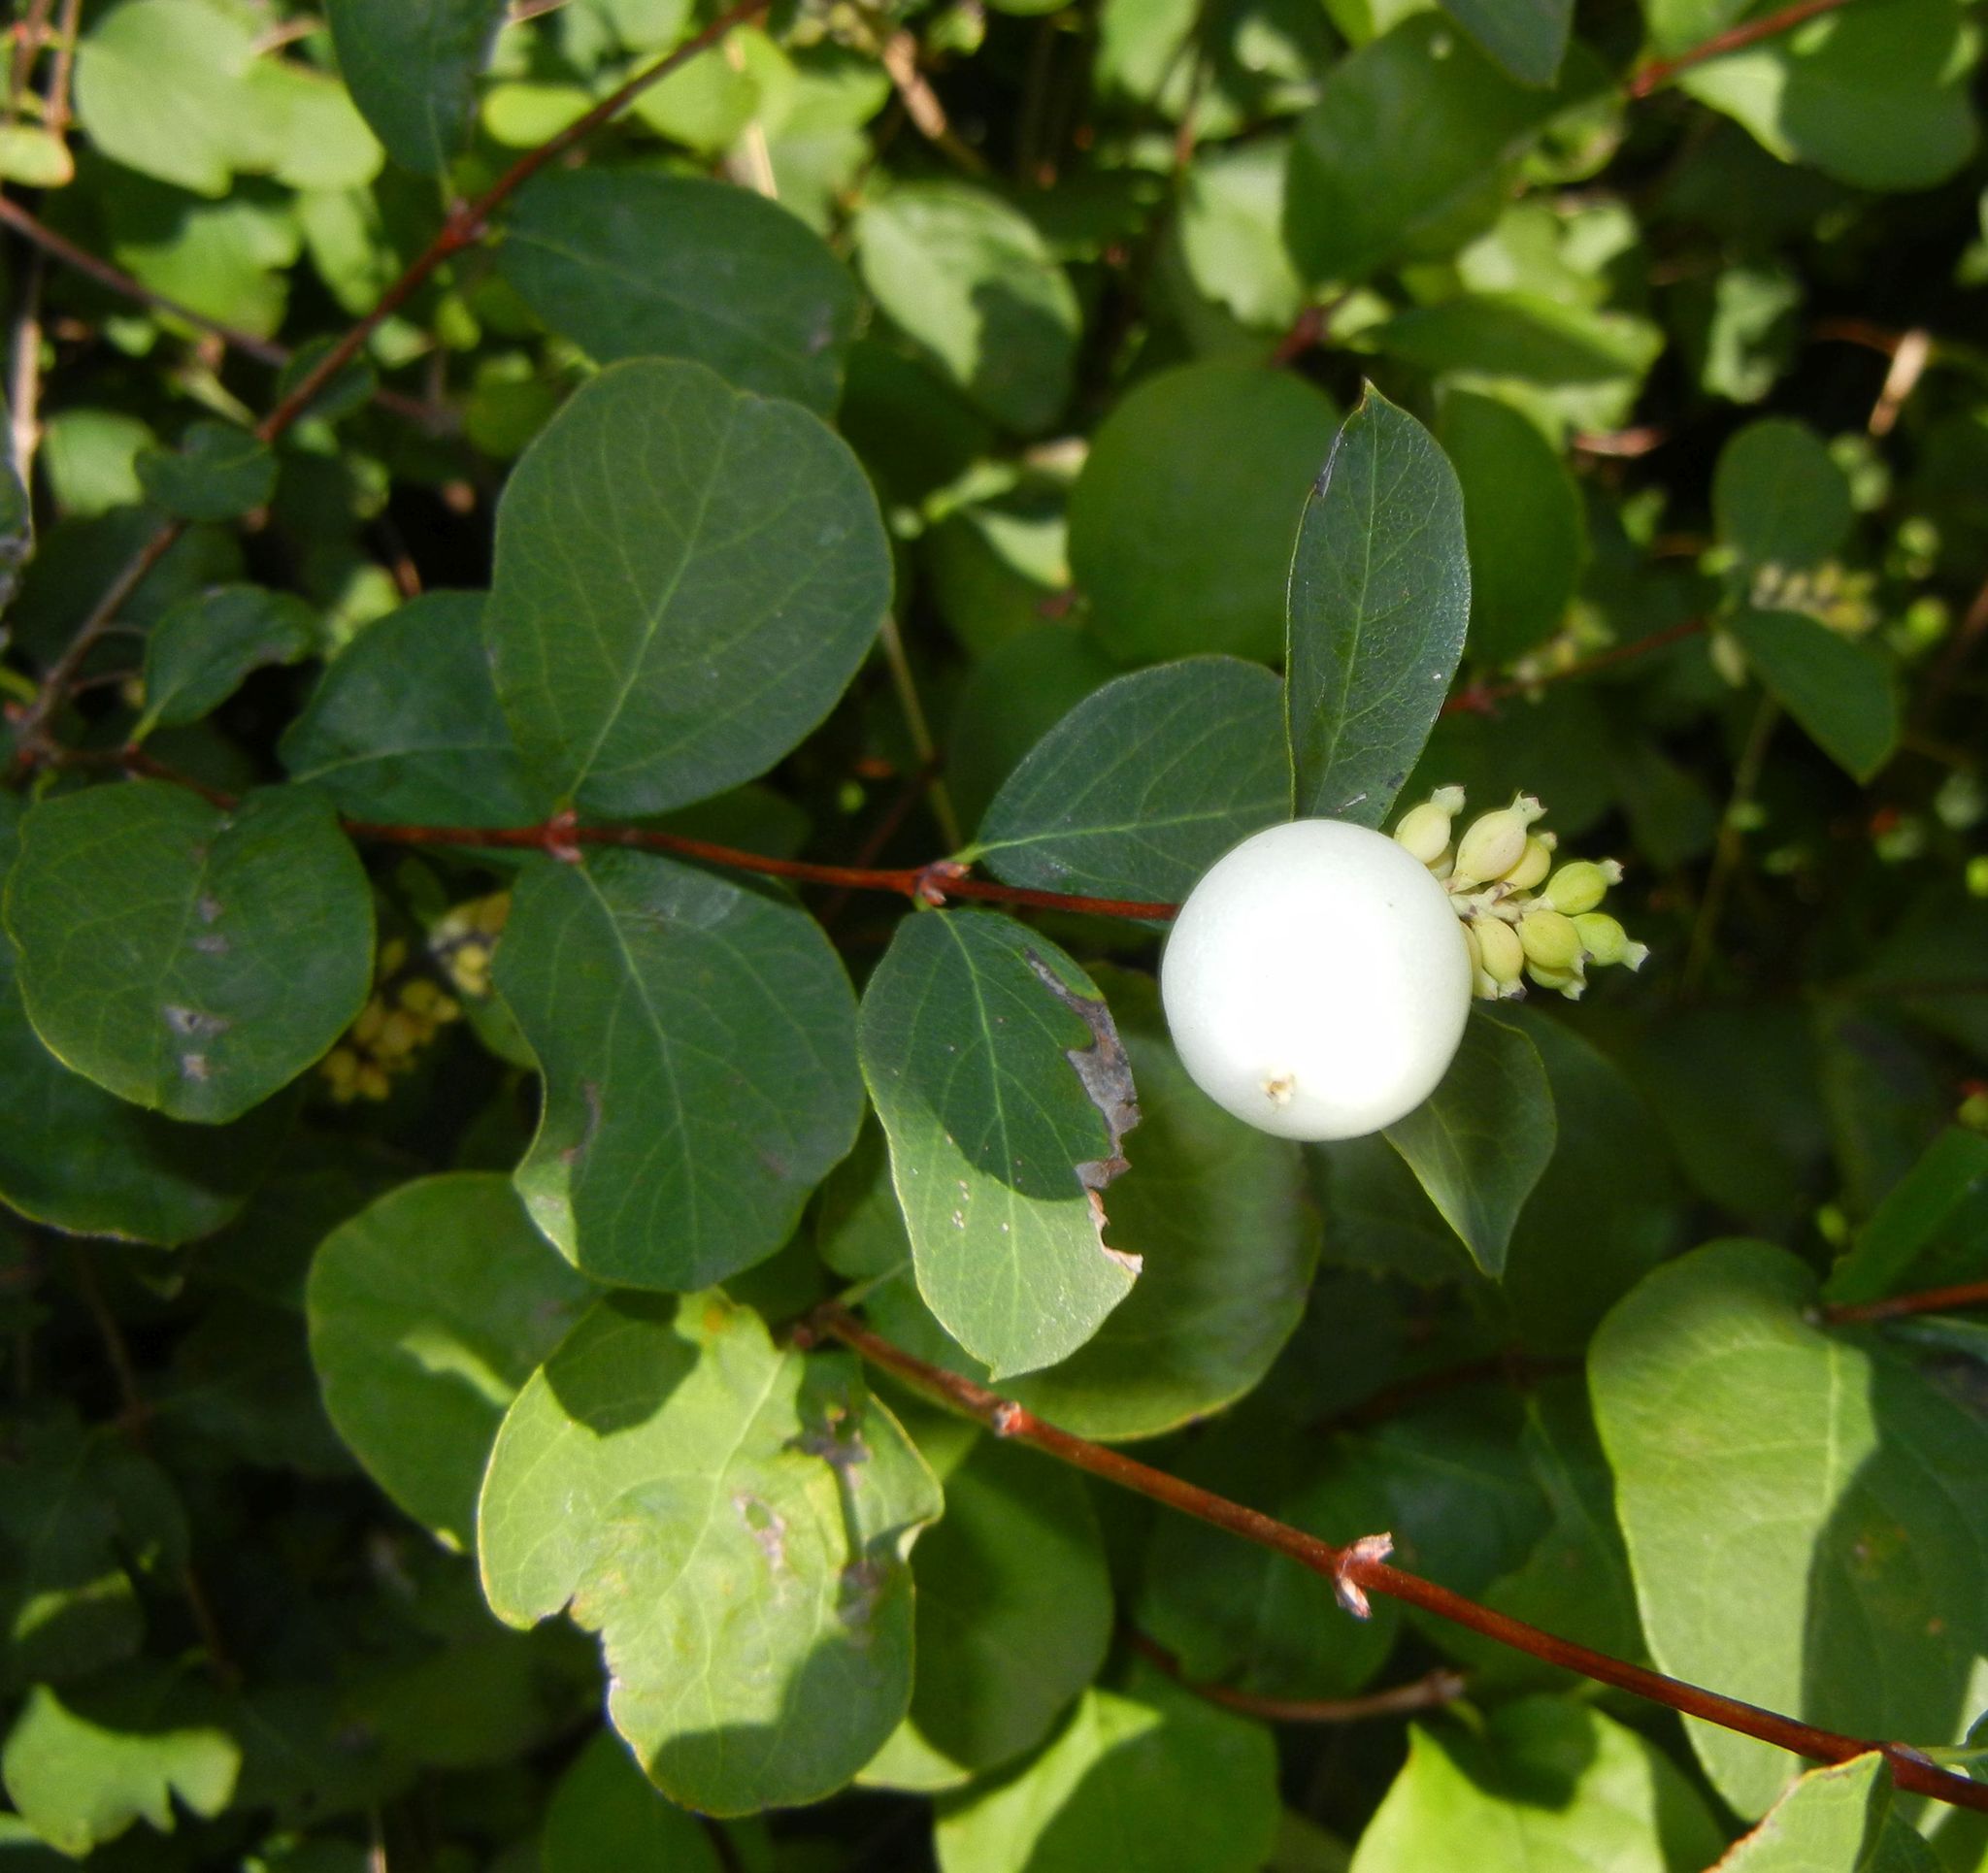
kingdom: Plantae
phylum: Tracheophyta
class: Magnoliopsida
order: Dipsacales
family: Caprifoliaceae
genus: Symphoricarpos
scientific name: Symphoricarpos albus
